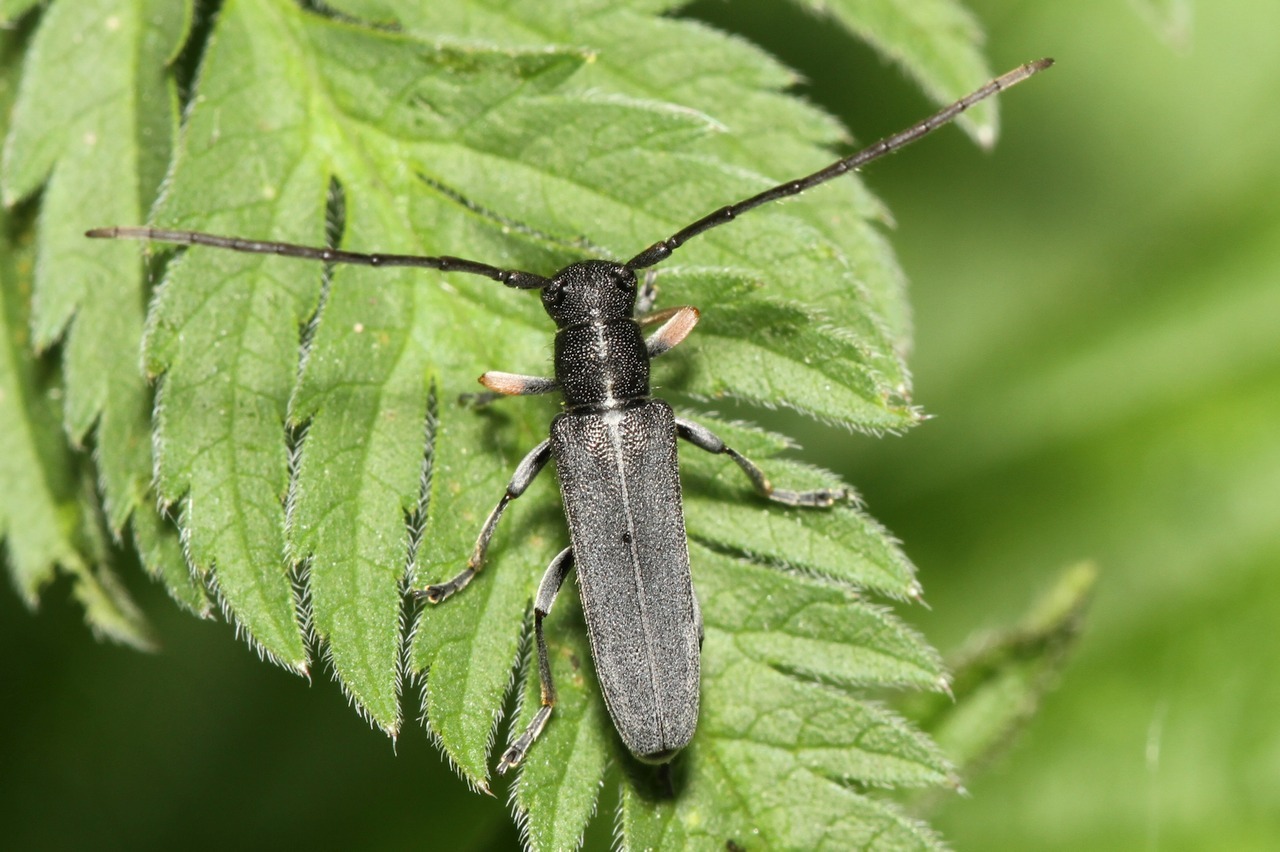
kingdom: Animalia
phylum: Arthropoda
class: Insecta
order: Coleoptera
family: Cerambycidae
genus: Phytoecia
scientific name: Phytoecia cylindrica
